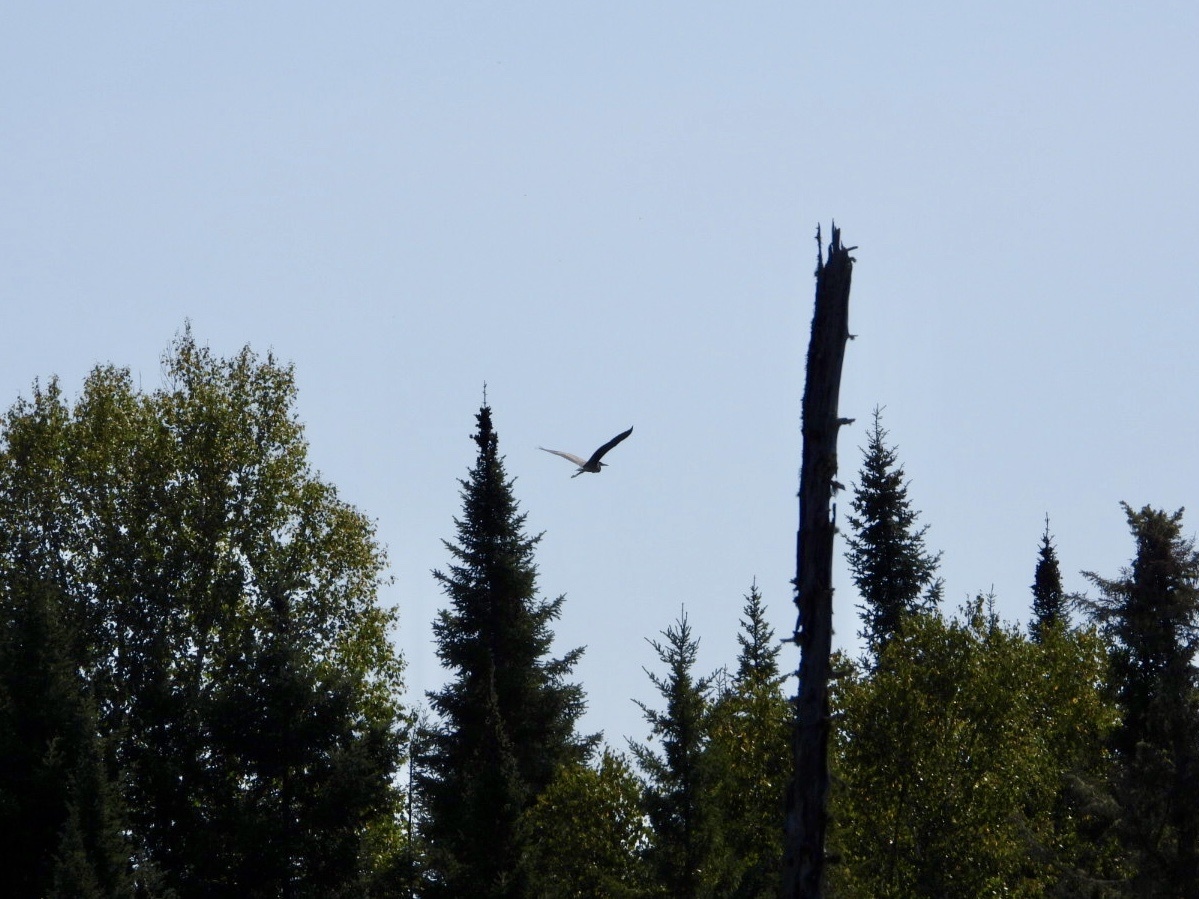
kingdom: Animalia
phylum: Chordata
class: Aves
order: Pelecaniformes
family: Ardeidae
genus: Ardea
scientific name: Ardea herodias
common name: Great blue heron
